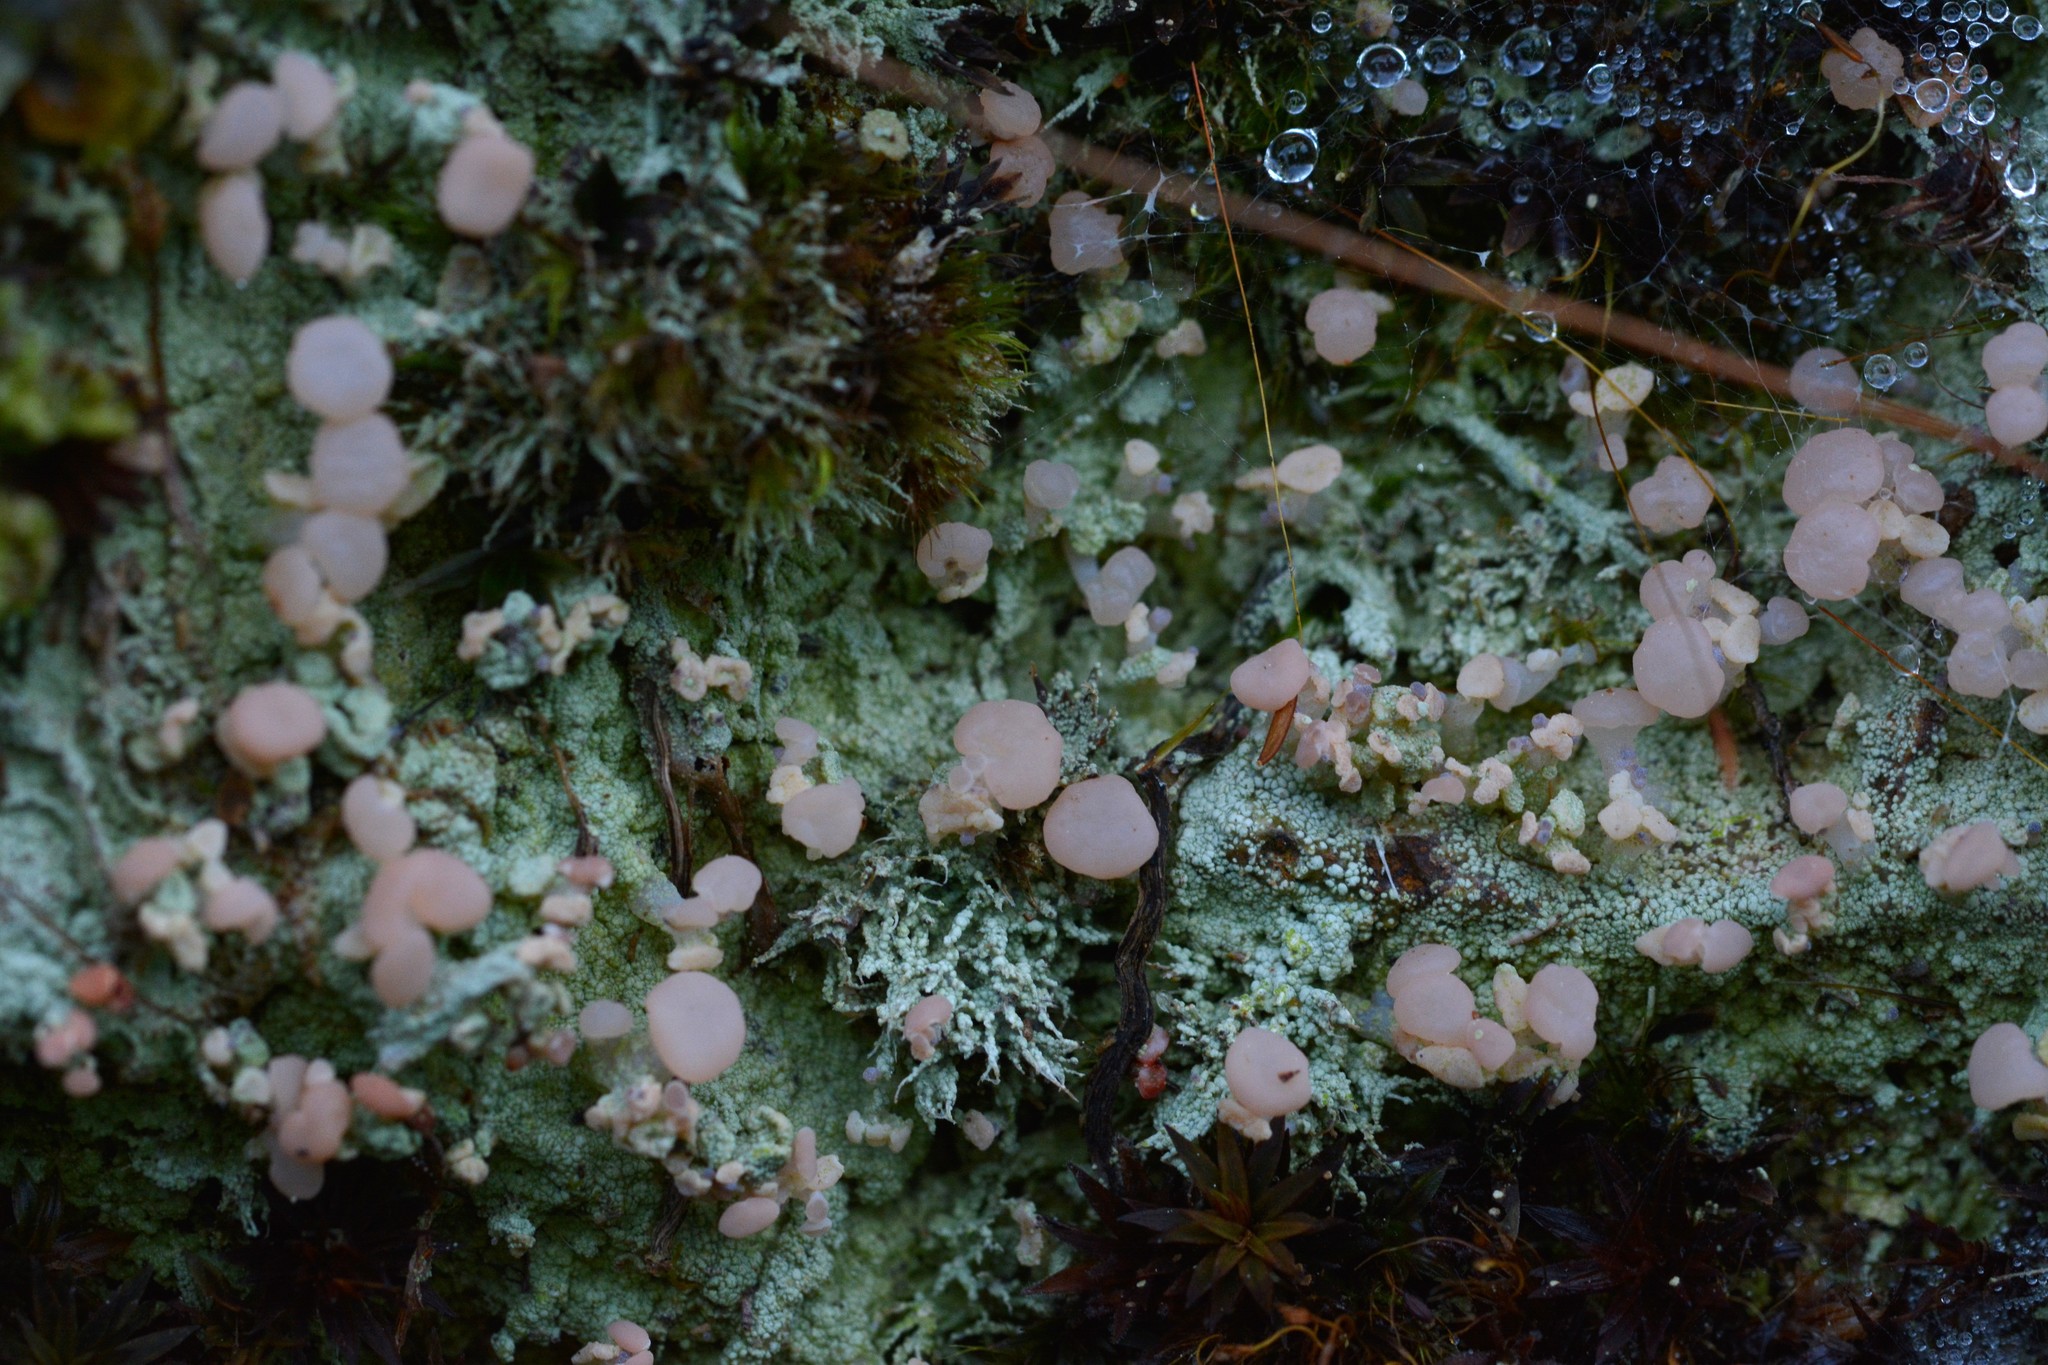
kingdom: Fungi
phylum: Ascomycota
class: Lecanoromycetes
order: Baeomycetales
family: Baeomycetaceae
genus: Baeomyces
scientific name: Baeomyces heteromorphus
